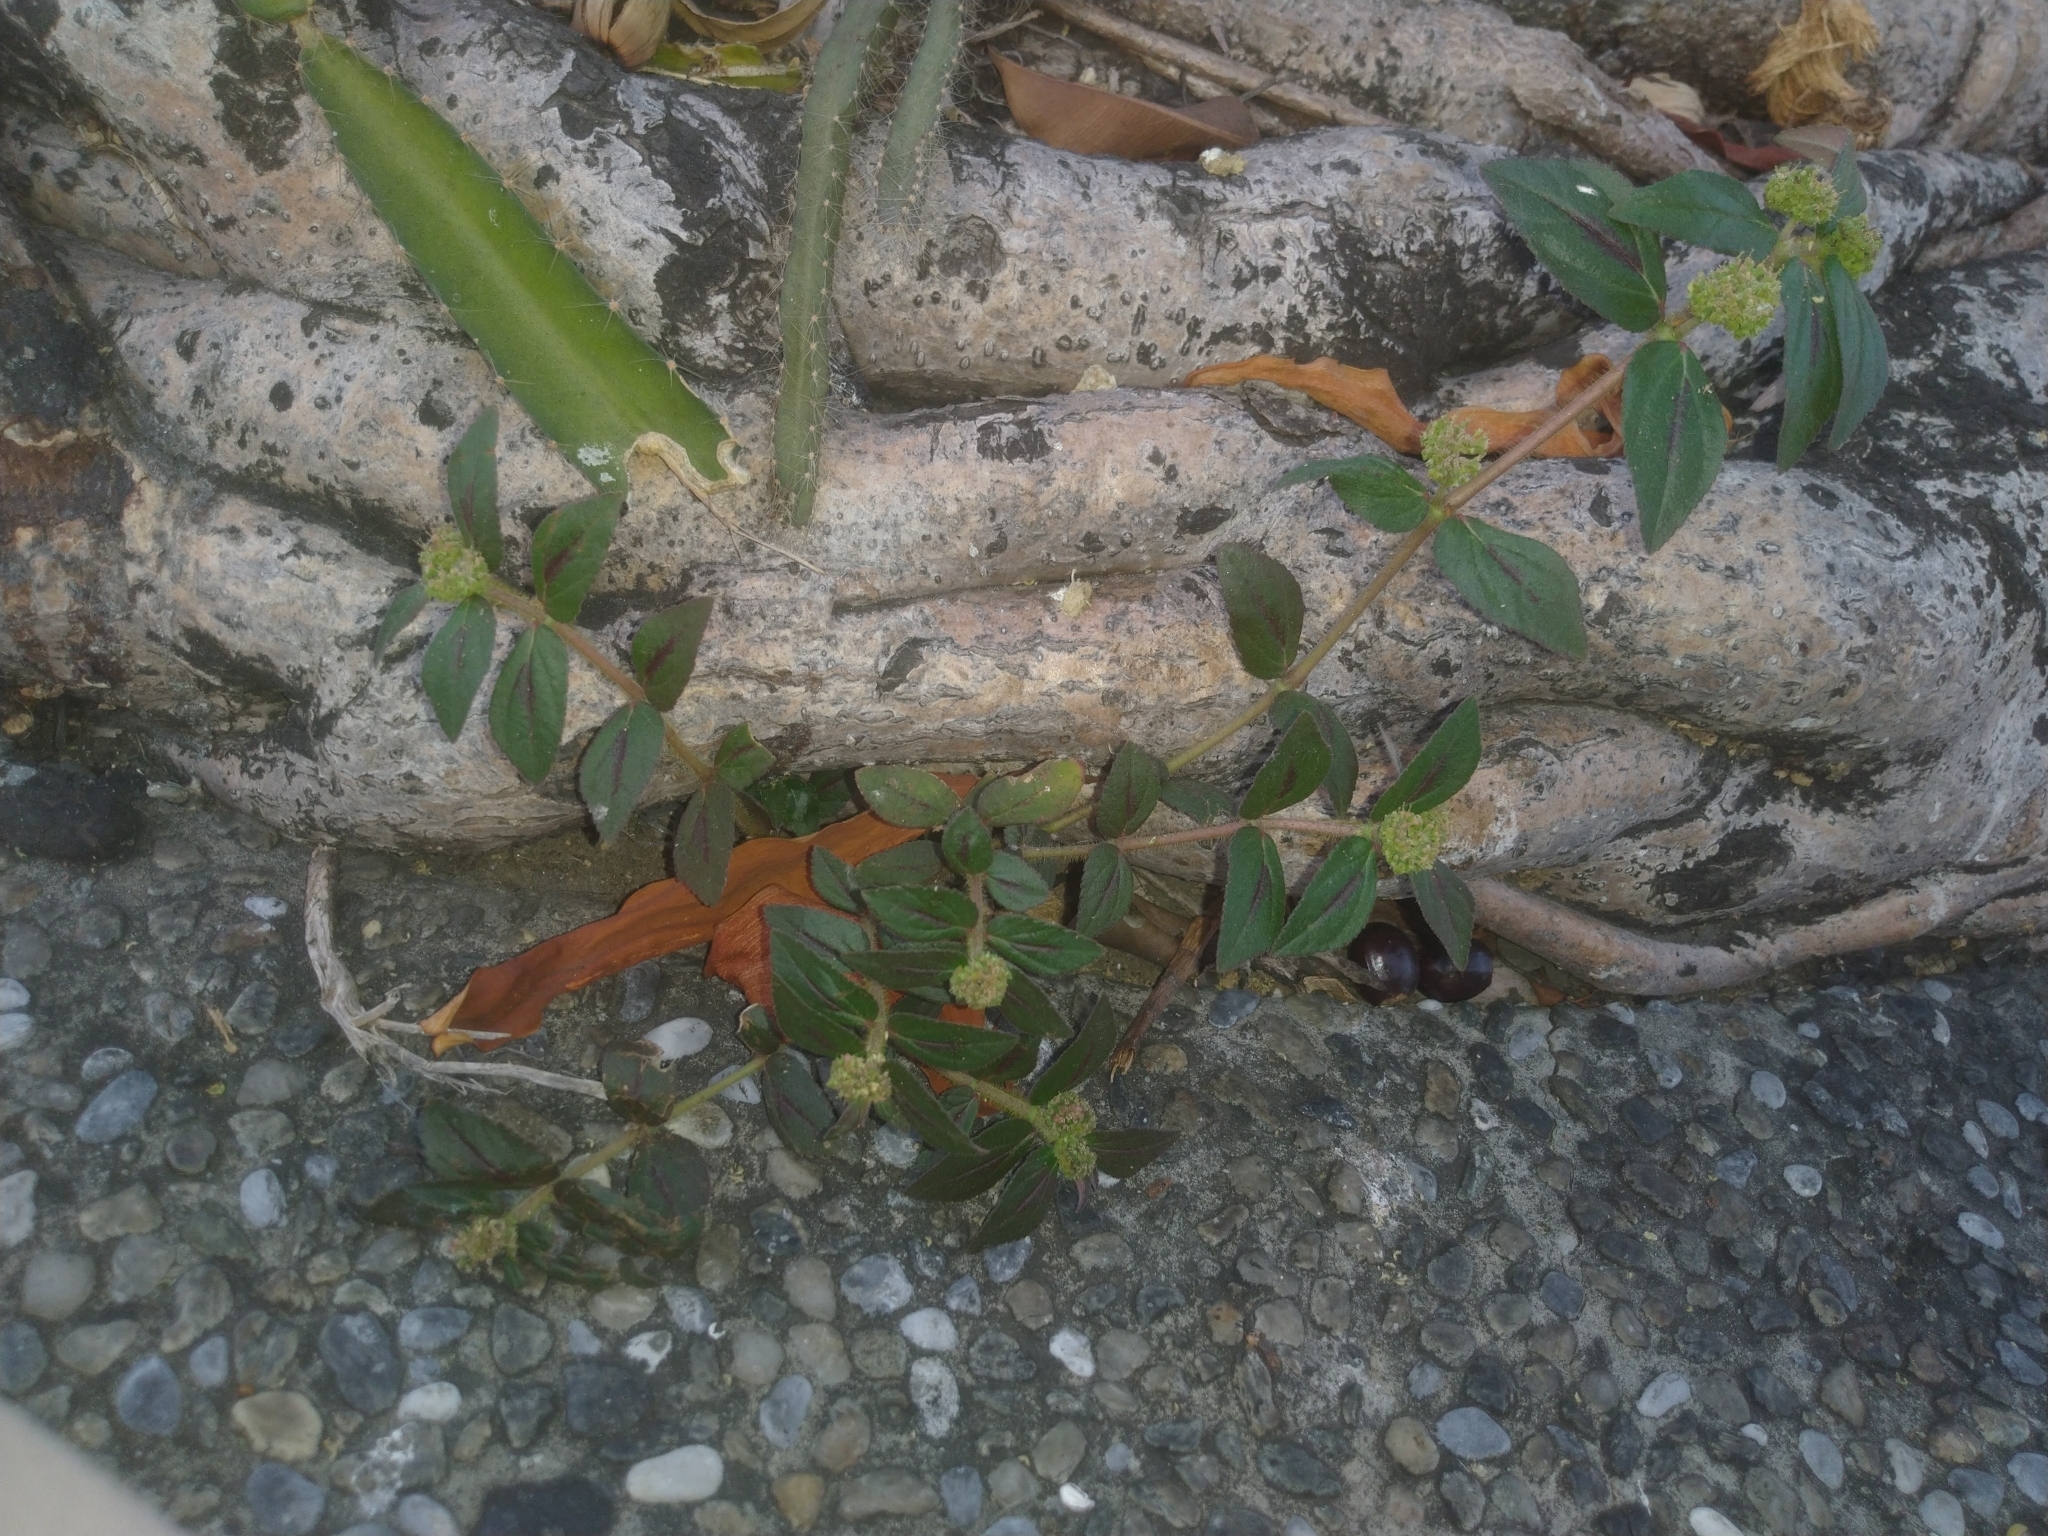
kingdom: Plantae
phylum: Tracheophyta
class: Magnoliopsida
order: Malpighiales
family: Euphorbiaceae
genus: Euphorbia
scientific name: Euphorbia hirta
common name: Pillpod sandmat
